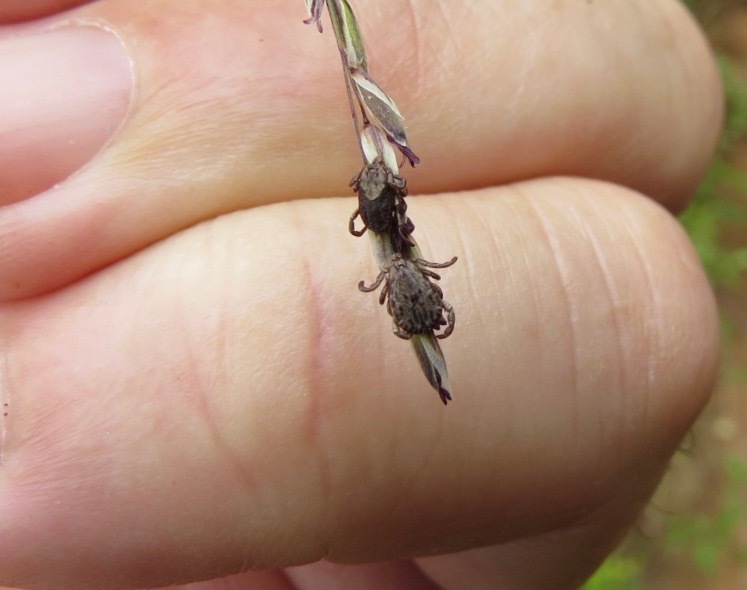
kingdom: Animalia
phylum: Arthropoda
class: Arachnida
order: Ixodida
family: Ixodidae
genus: Dermacentor
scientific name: Dermacentor occidentalis
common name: Net tick
